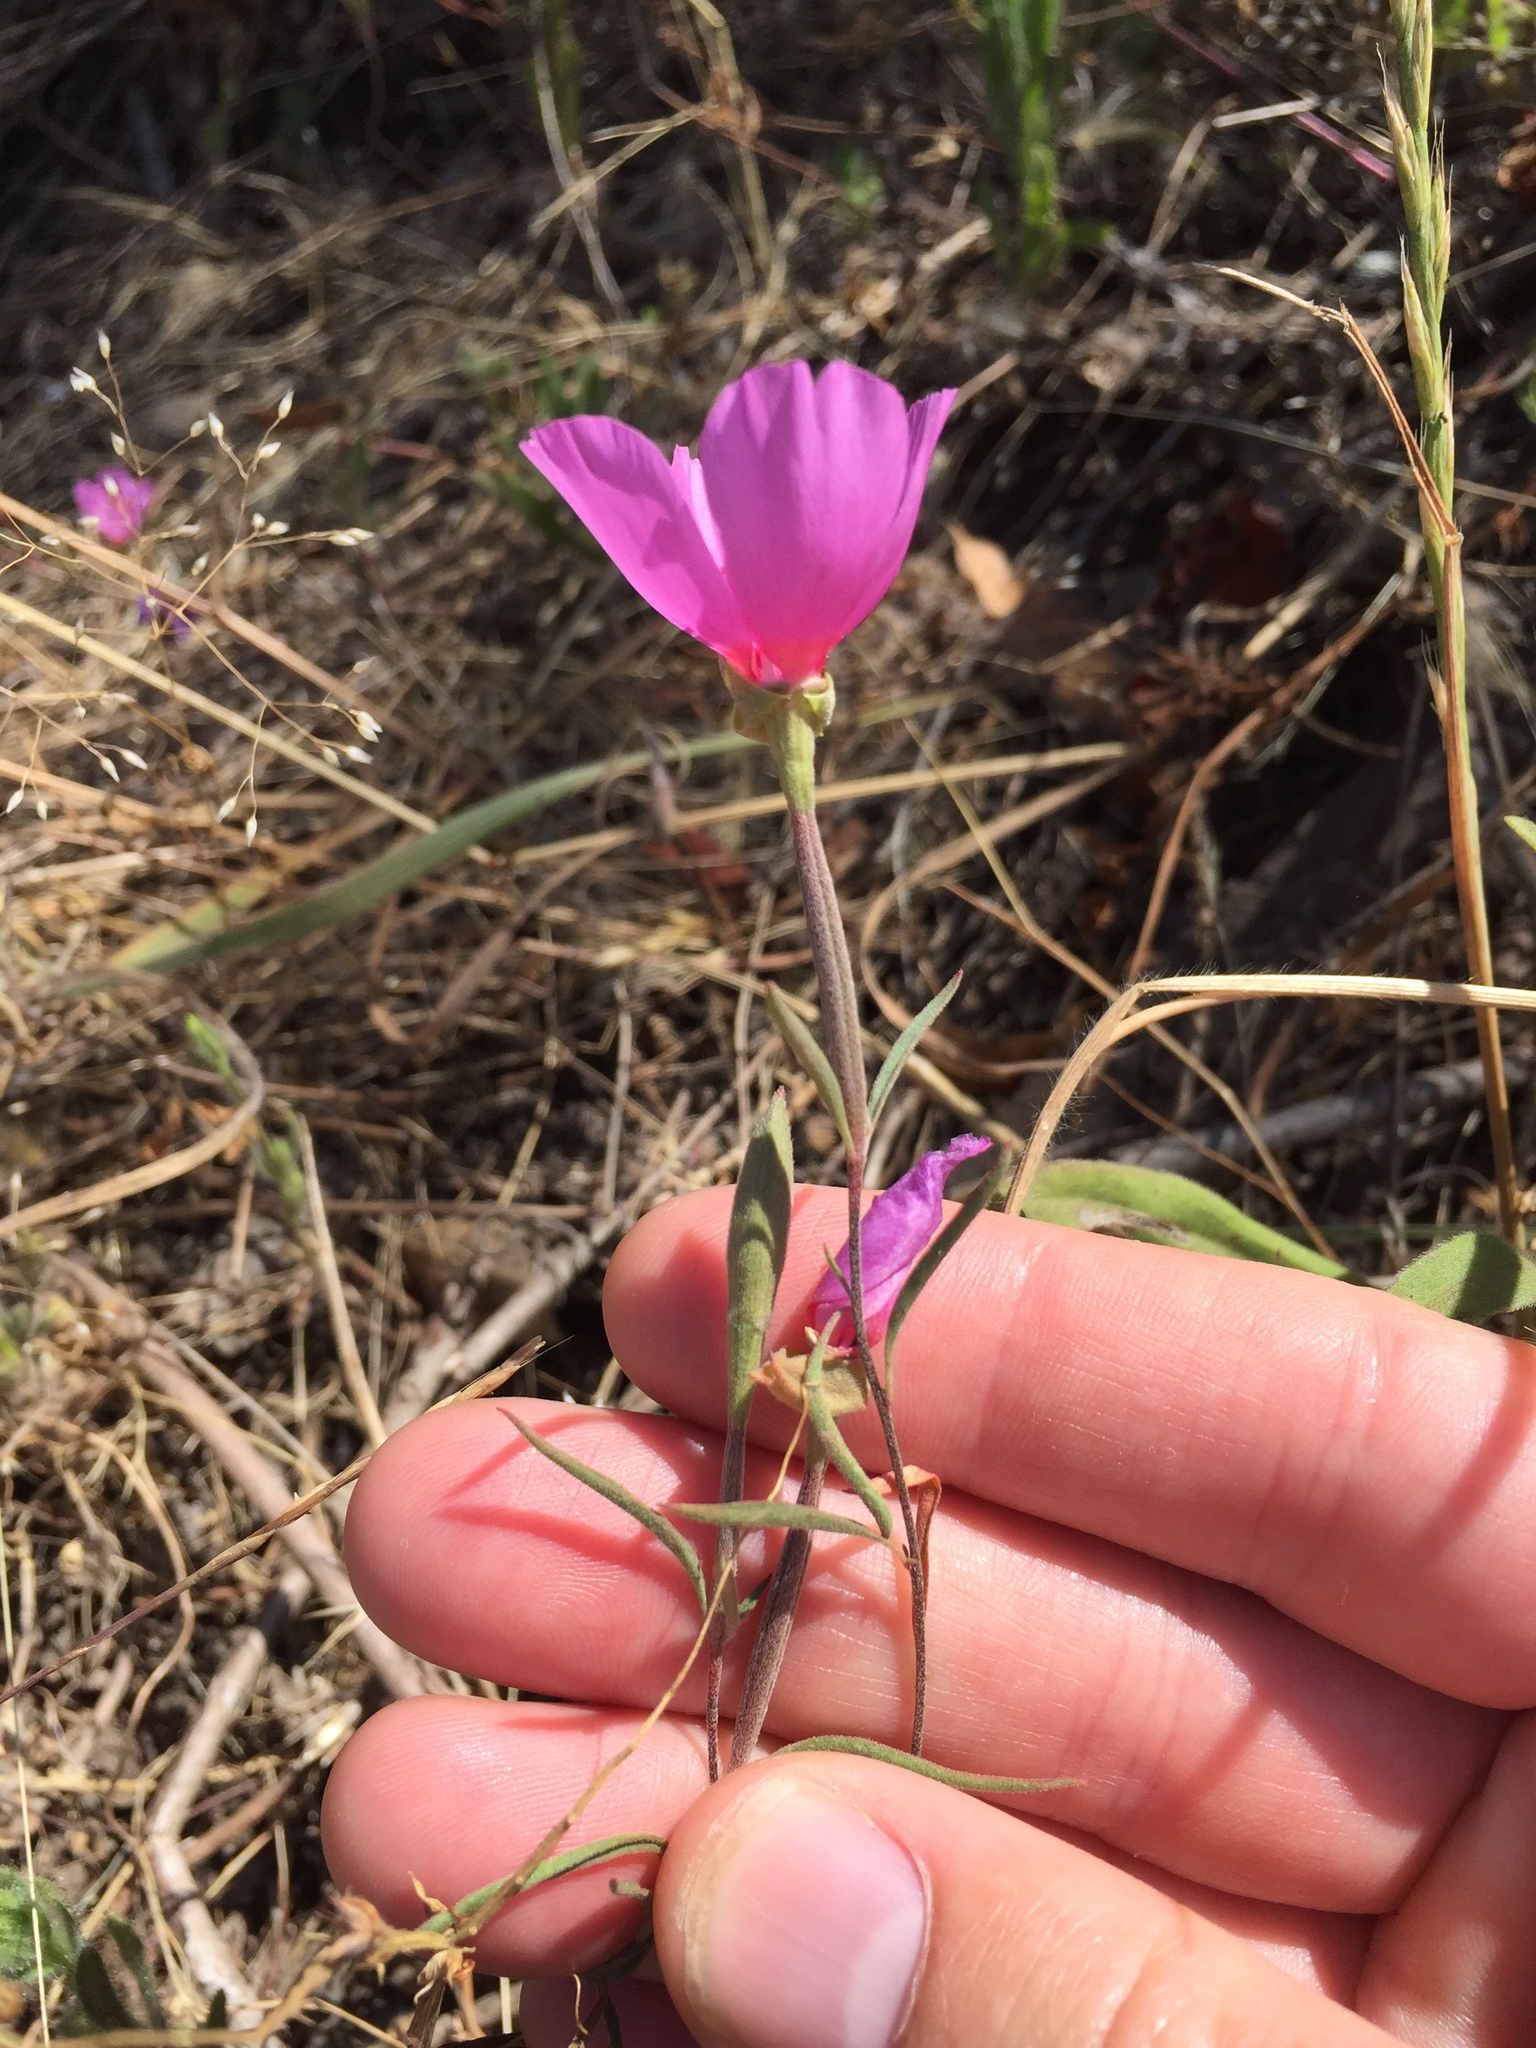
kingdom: Plantae
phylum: Tracheophyta
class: Magnoliopsida
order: Myrtales
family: Onagraceae
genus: Clarkia
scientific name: Clarkia rubicunda
